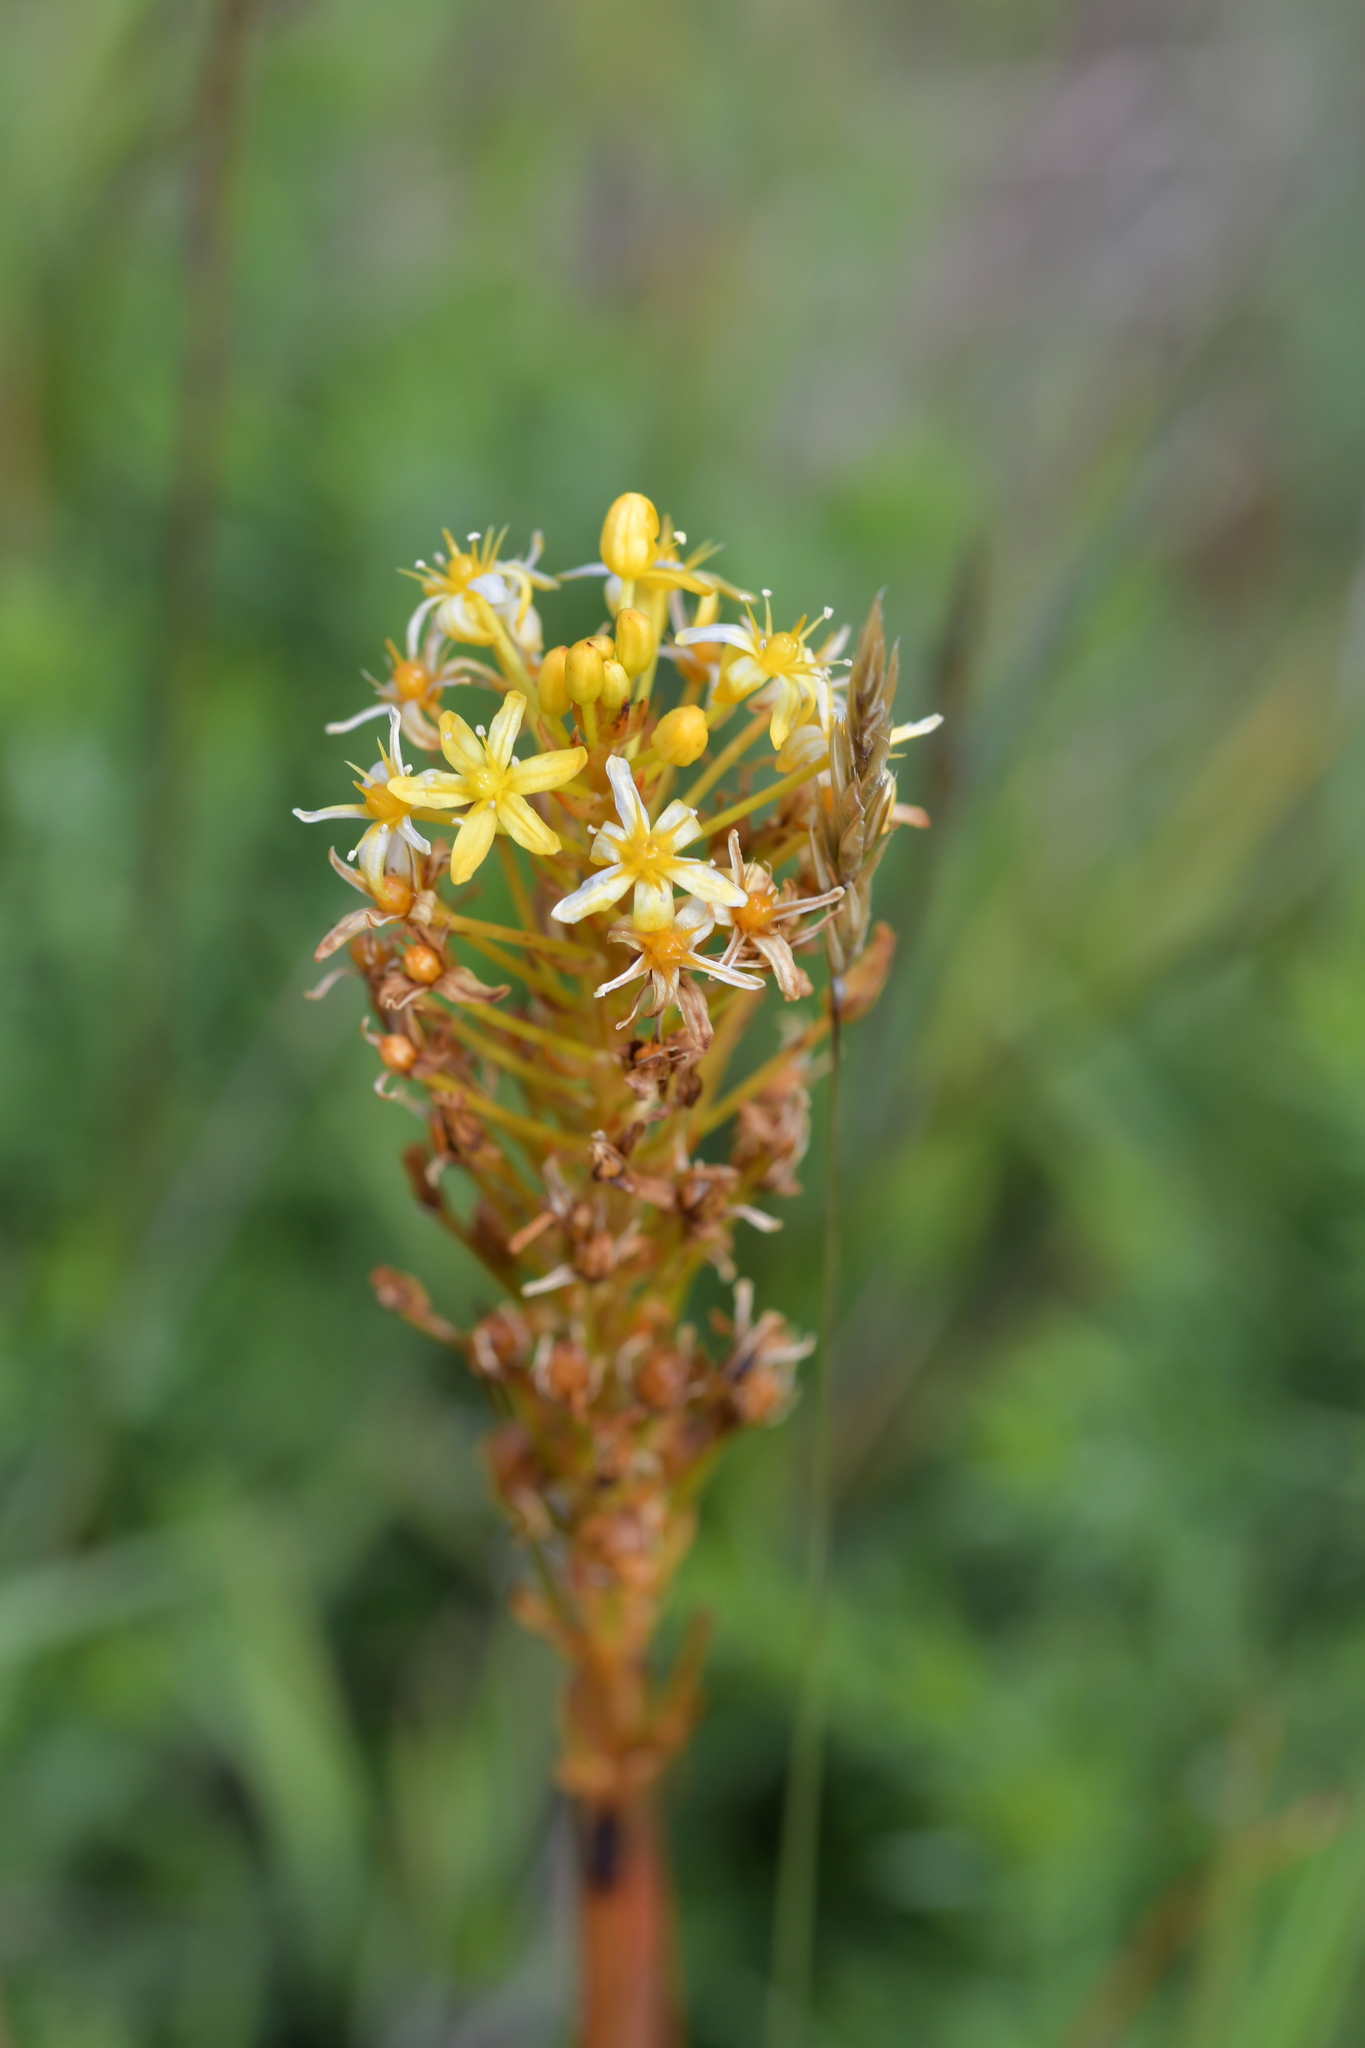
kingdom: Plantae
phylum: Tracheophyta
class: Liliopsida
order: Asparagales
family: Asphodelaceae
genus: Bulbinella
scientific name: Bulbinella angustifolia
